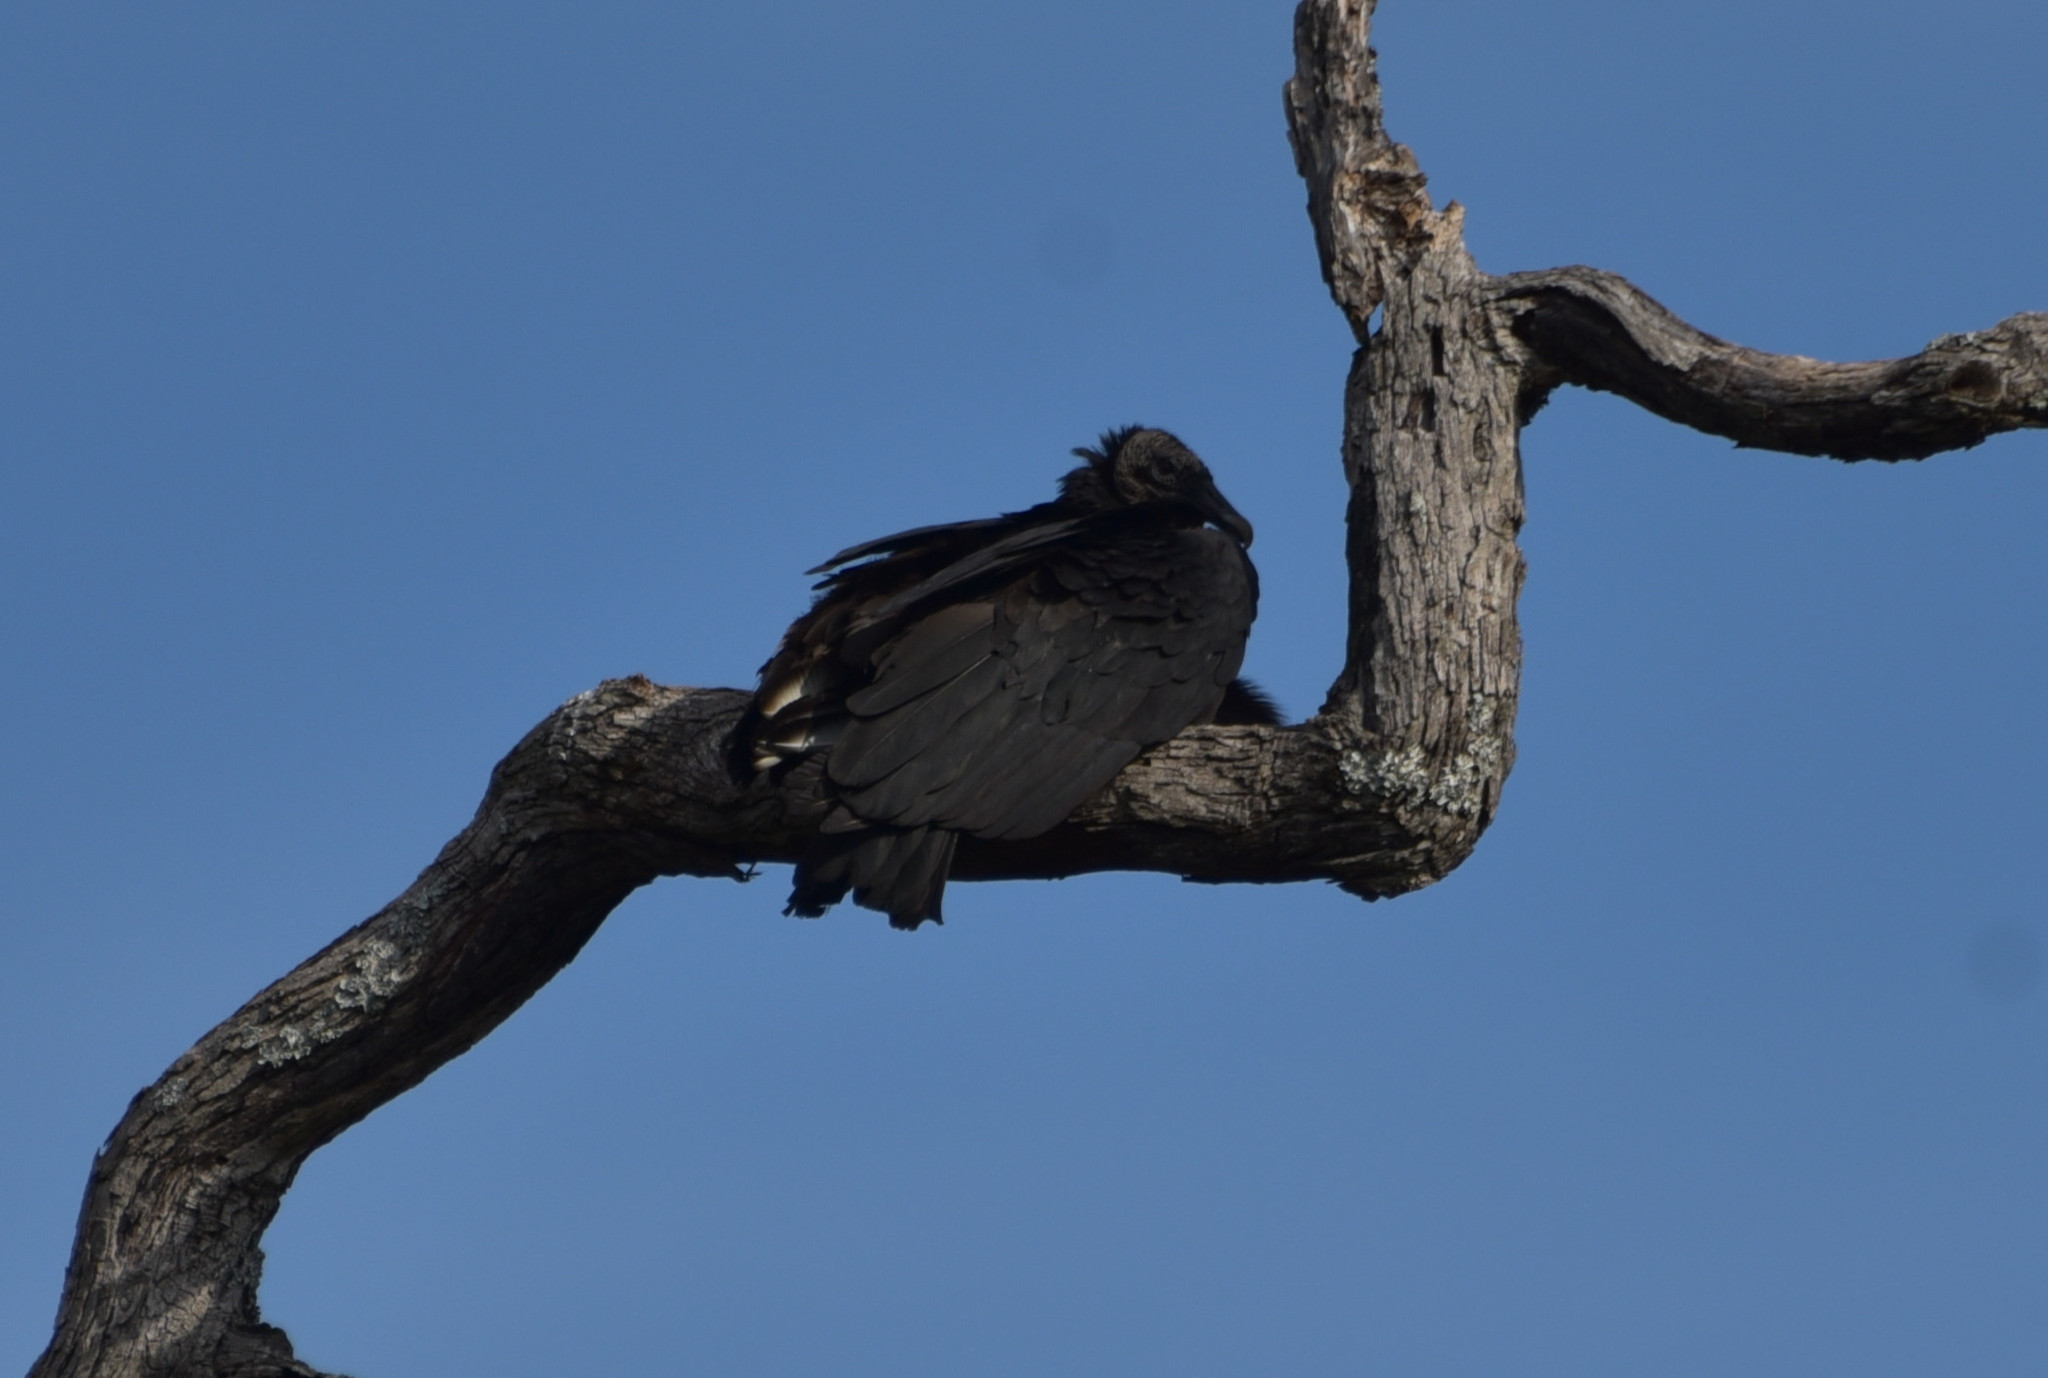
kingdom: Animalia
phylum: Chordata
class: Aves
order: Accipitriformes
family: Cathartidae
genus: Coragyps
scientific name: Coragyps atratus
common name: Black vulture
